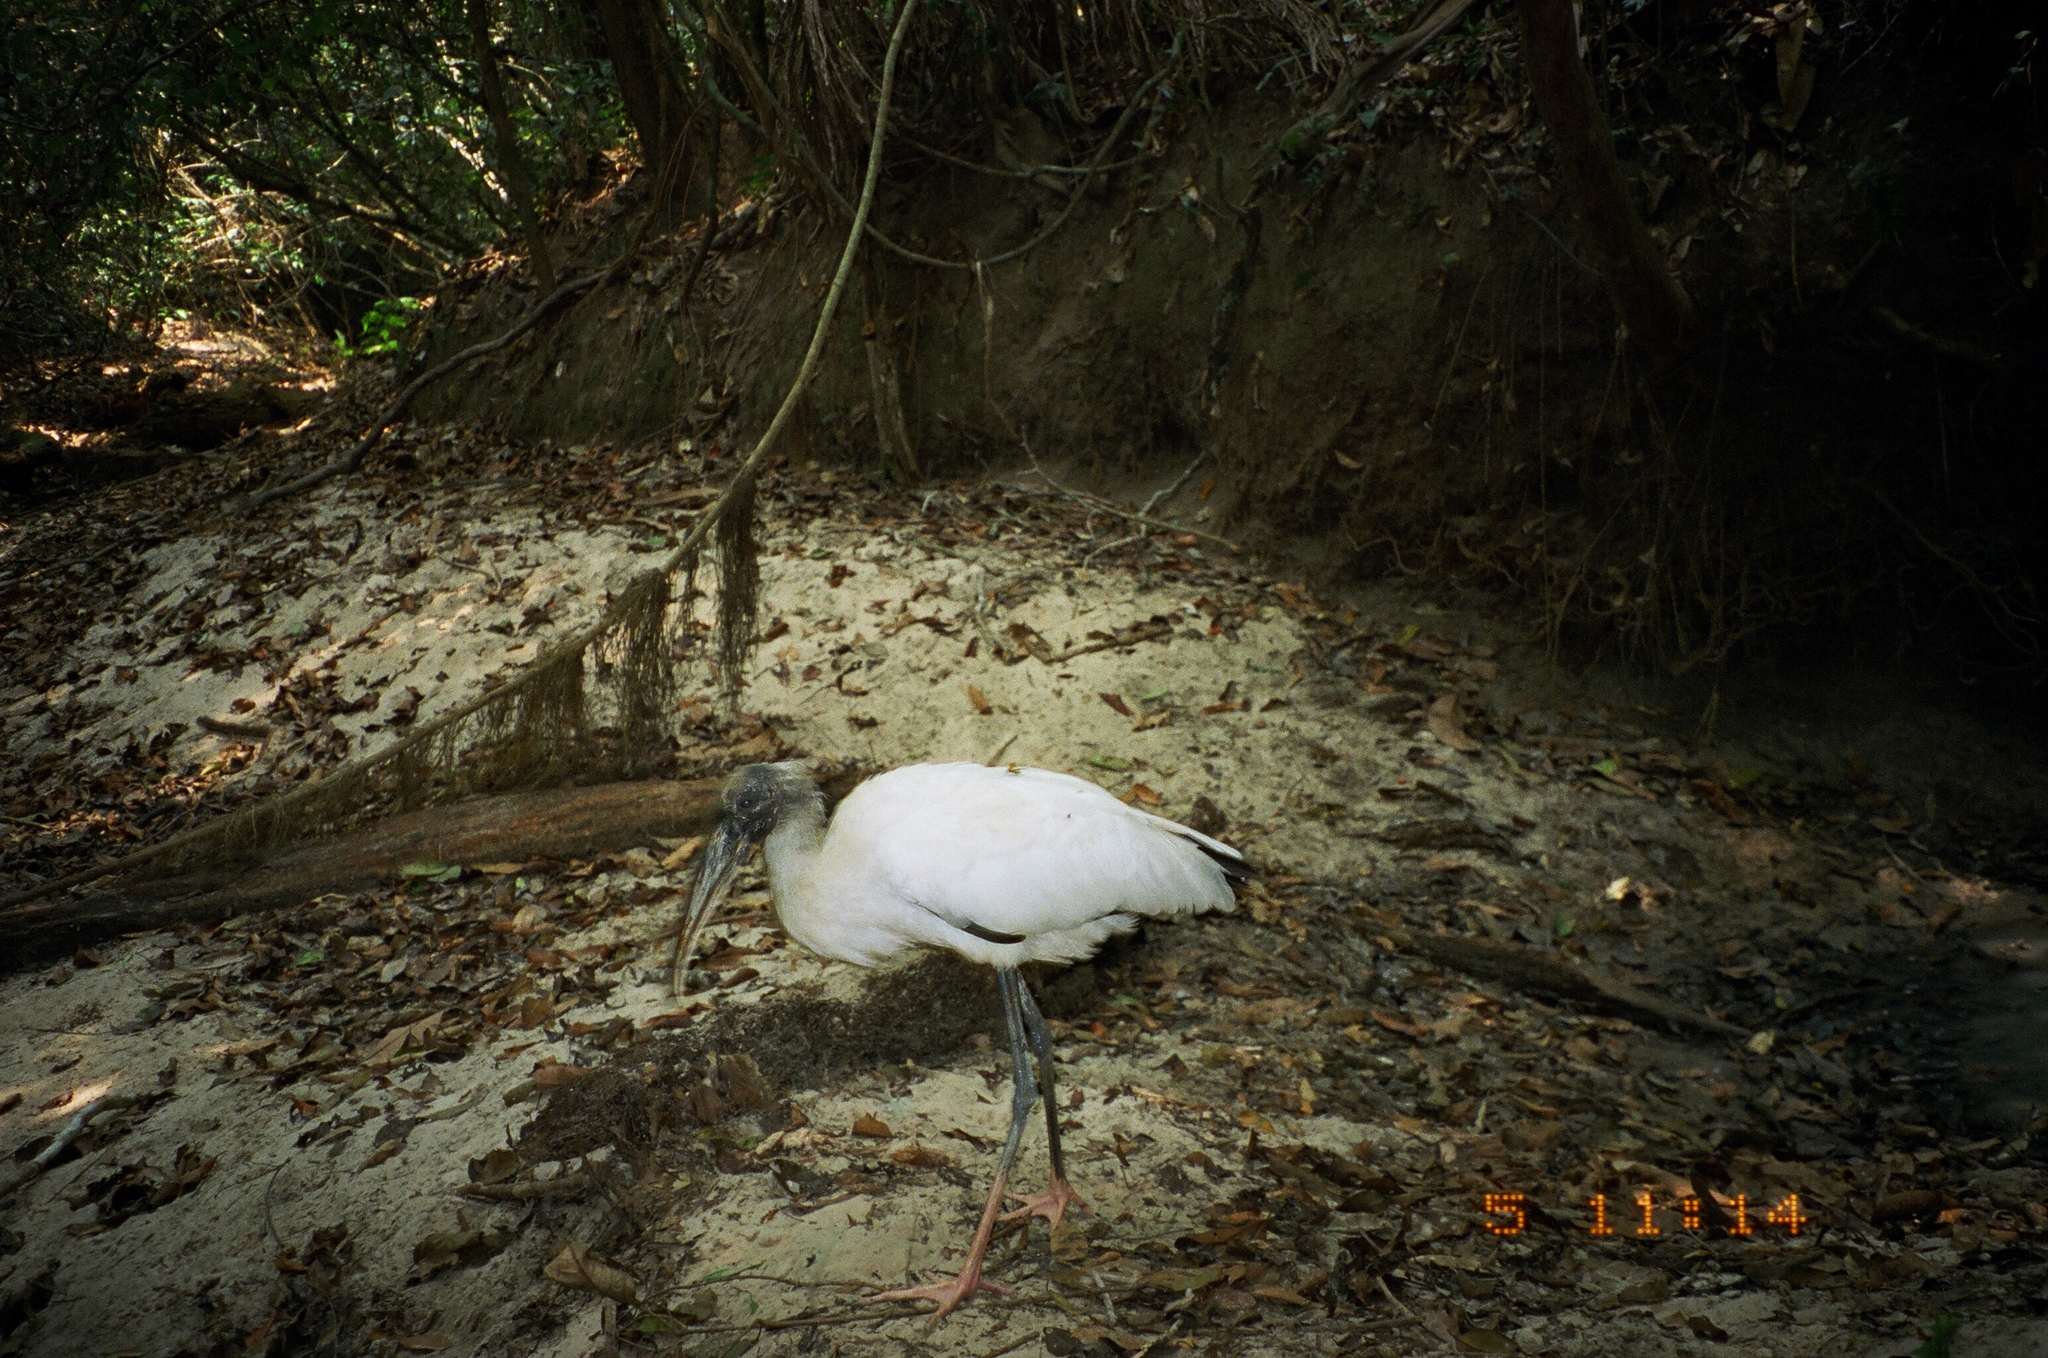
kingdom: Animalia
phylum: Chordata
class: Aves
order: Ciconiiformes
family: Ciconiidae
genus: Mycteria
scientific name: Mycteria americana
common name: Wood stork
